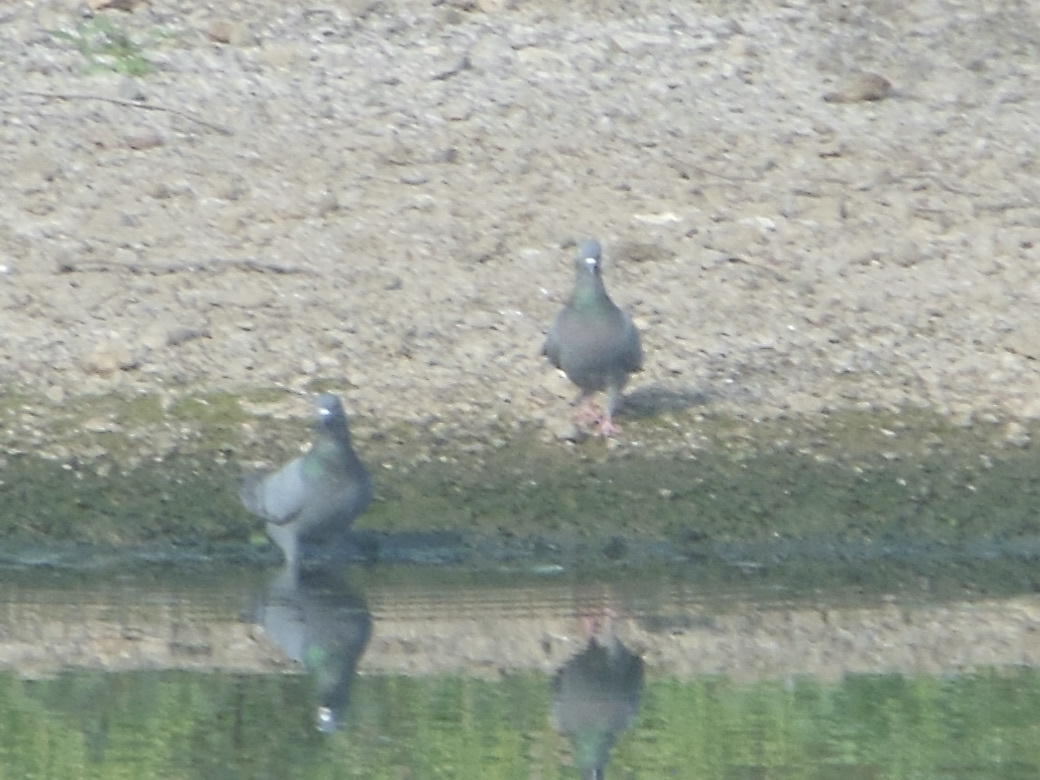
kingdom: Animalia
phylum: Chordata
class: Aves
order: Columbiformes
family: Columbidae
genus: Columba
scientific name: Columba livia
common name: Rock pigeon
